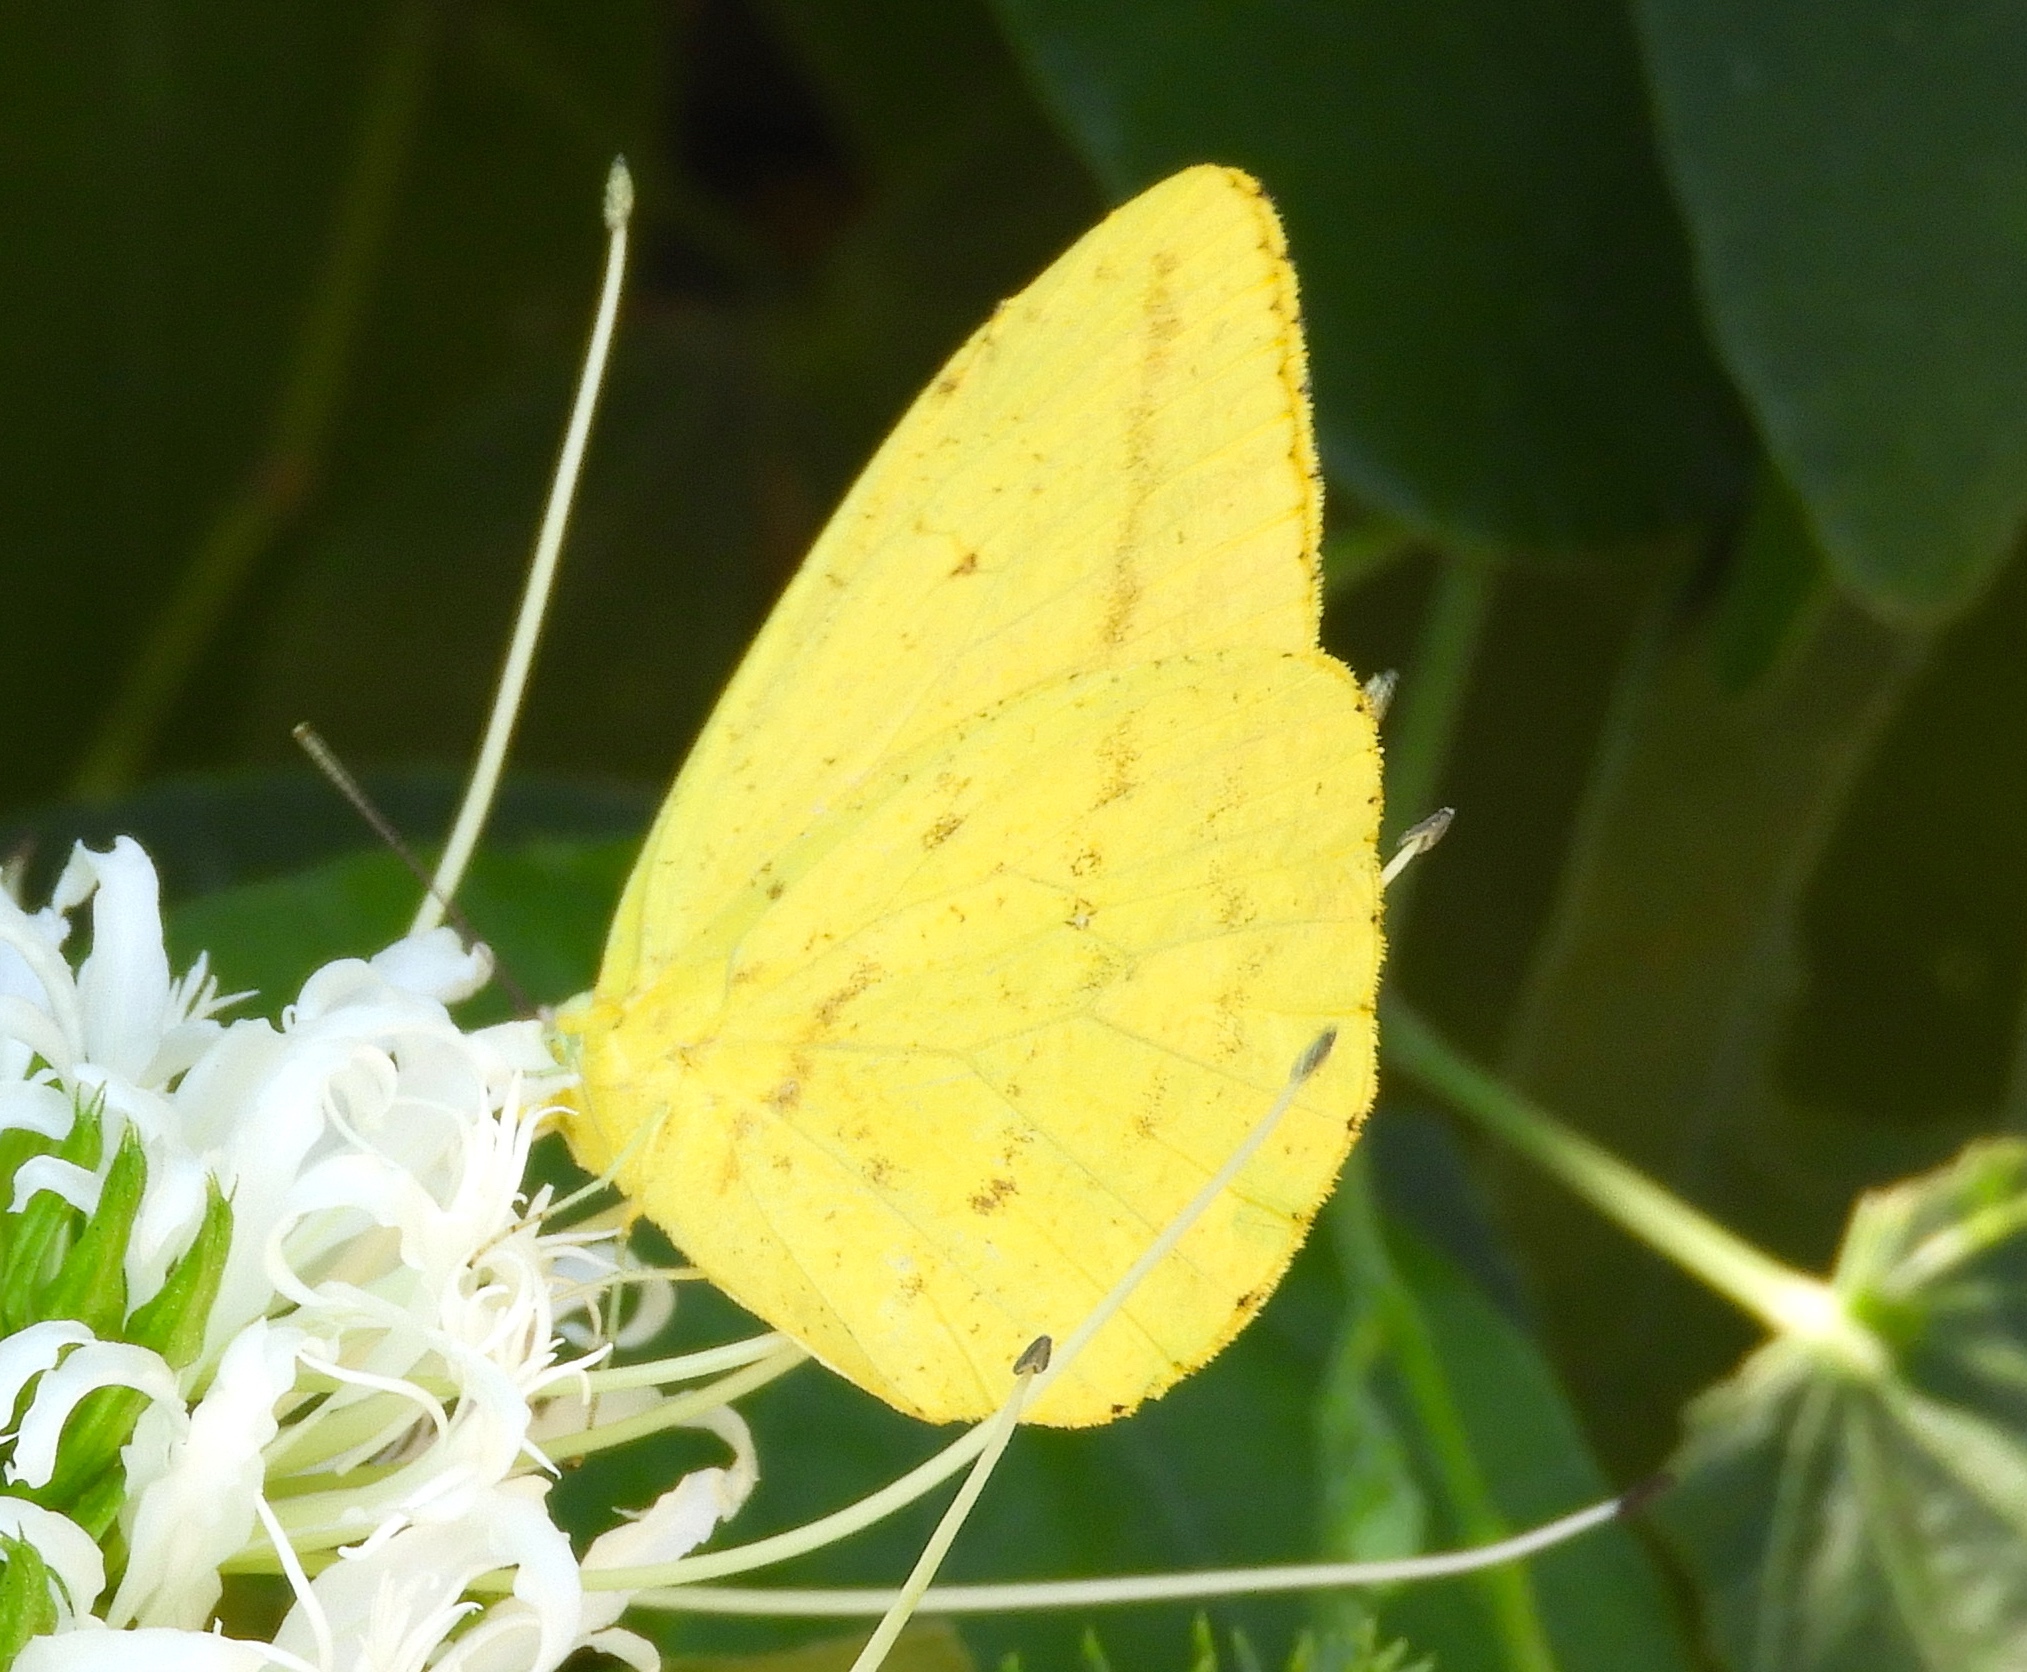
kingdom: Animalia
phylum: Arthropoda
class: Insecta
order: Lepidoptera
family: Pieridae
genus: Phoebis
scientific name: Phoebis agarithe
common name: Large orange sulphur
